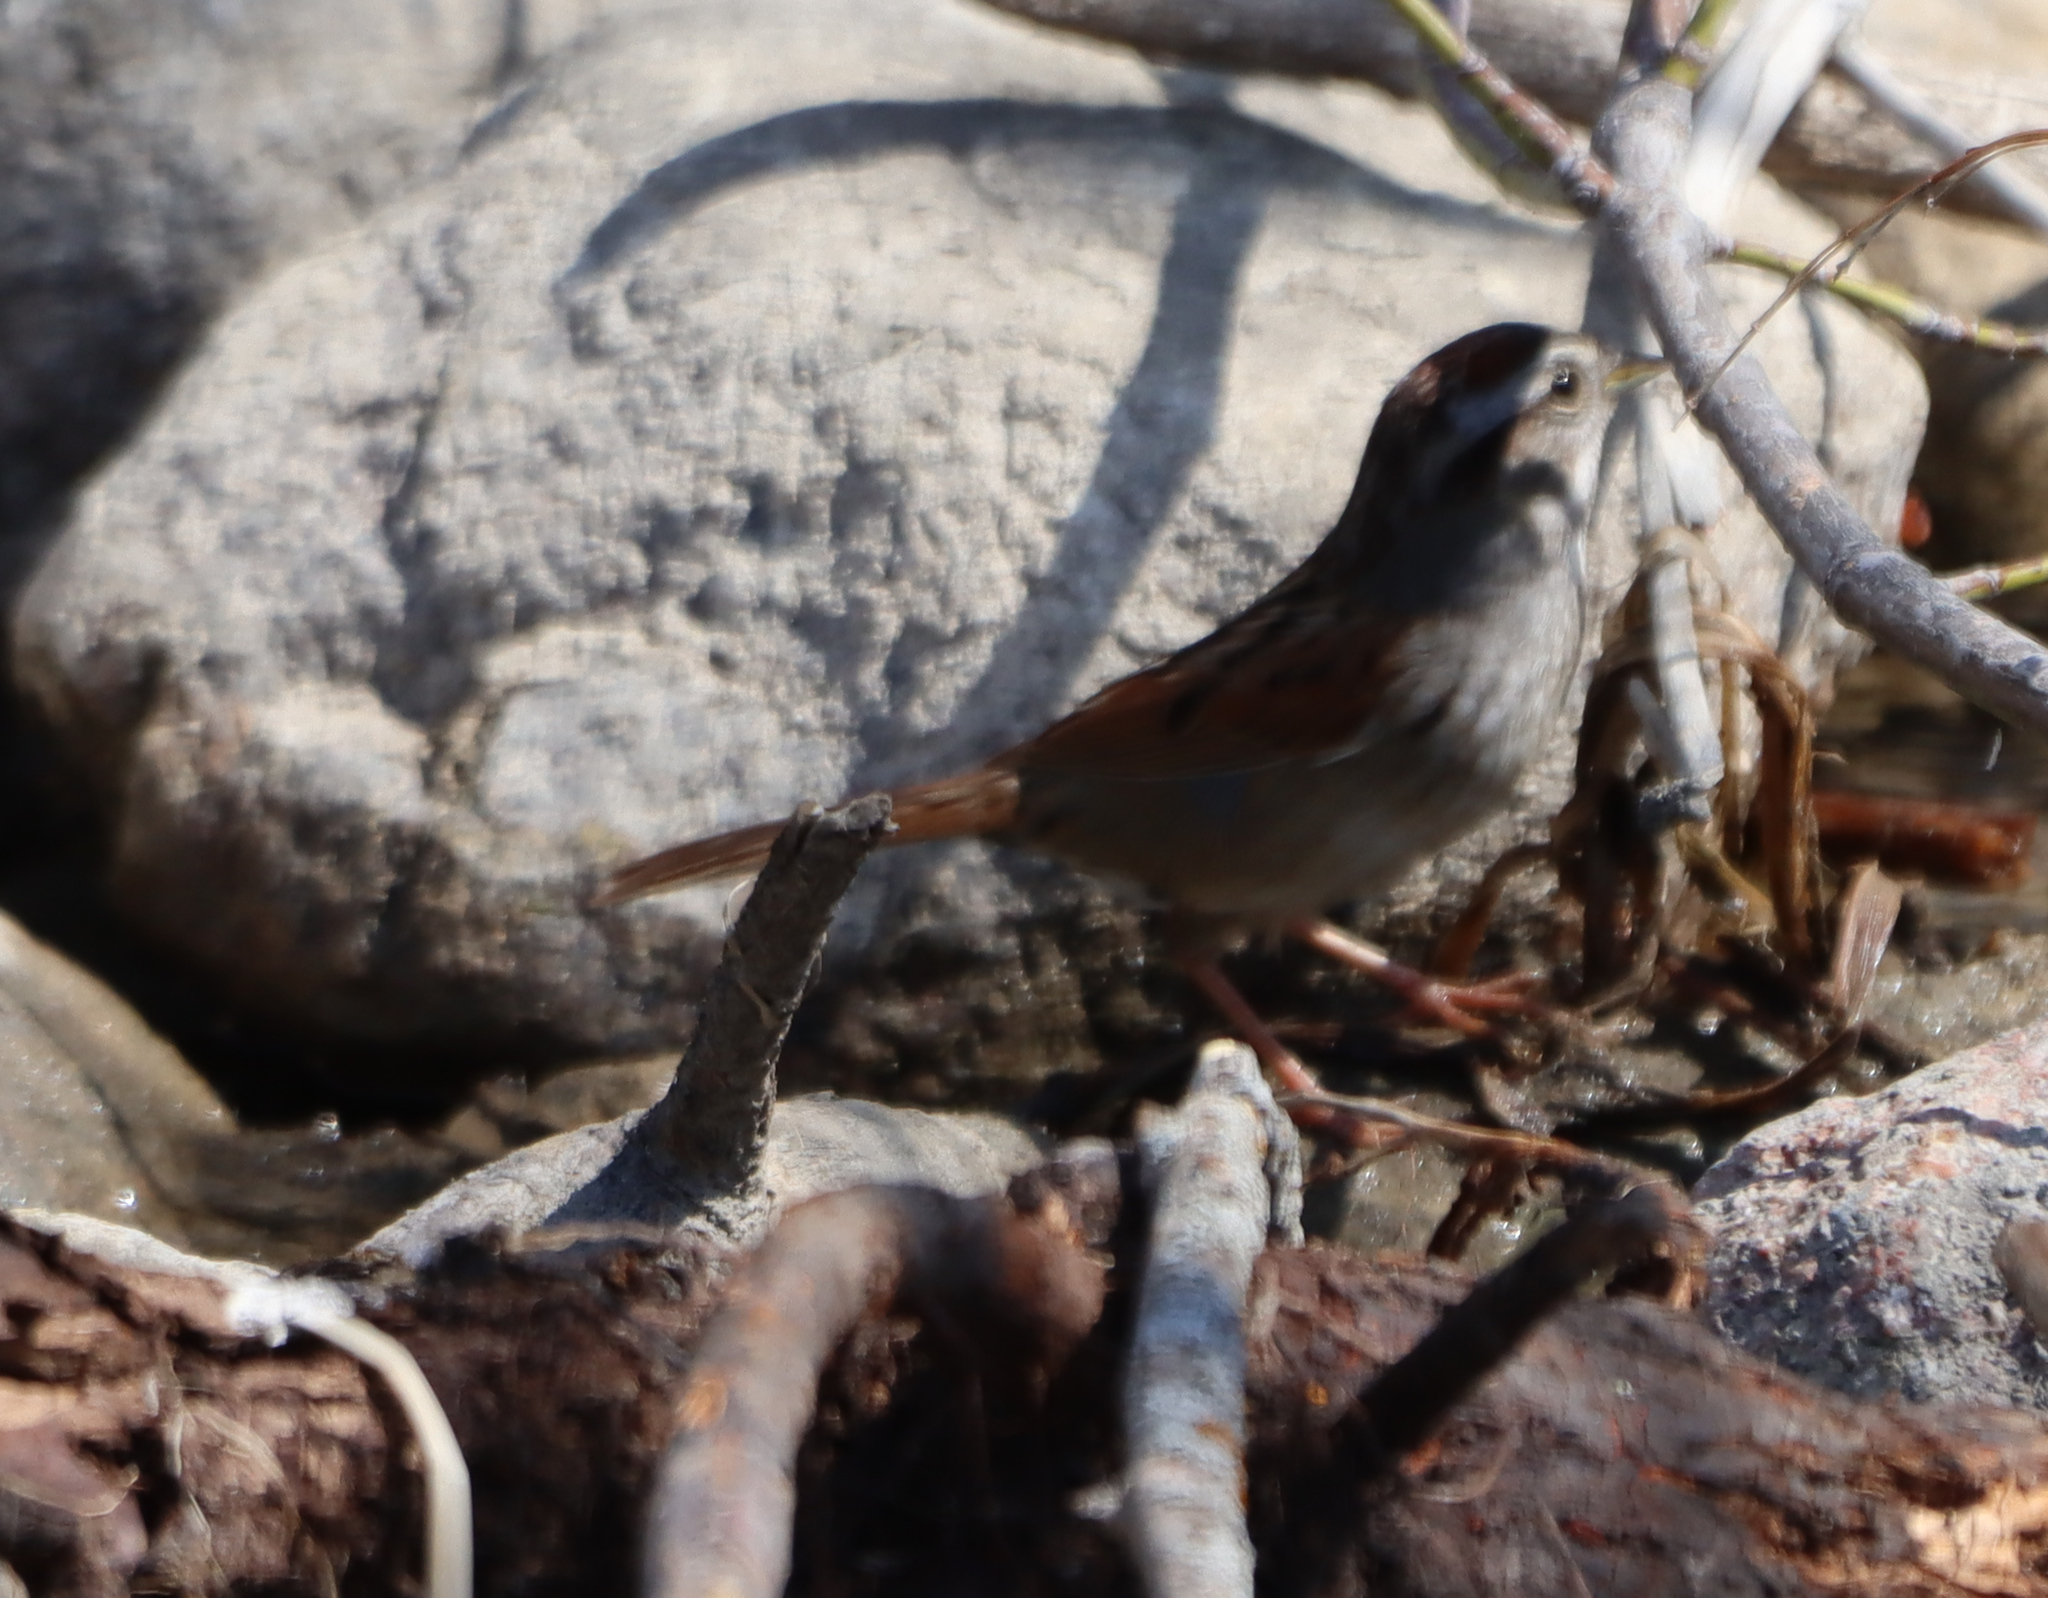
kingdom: Animalia
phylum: Chordata
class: Aves
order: Passeriformes
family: Passerellidae
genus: Melospiza
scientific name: Melospiza georgiana
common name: Swamp sparrow
